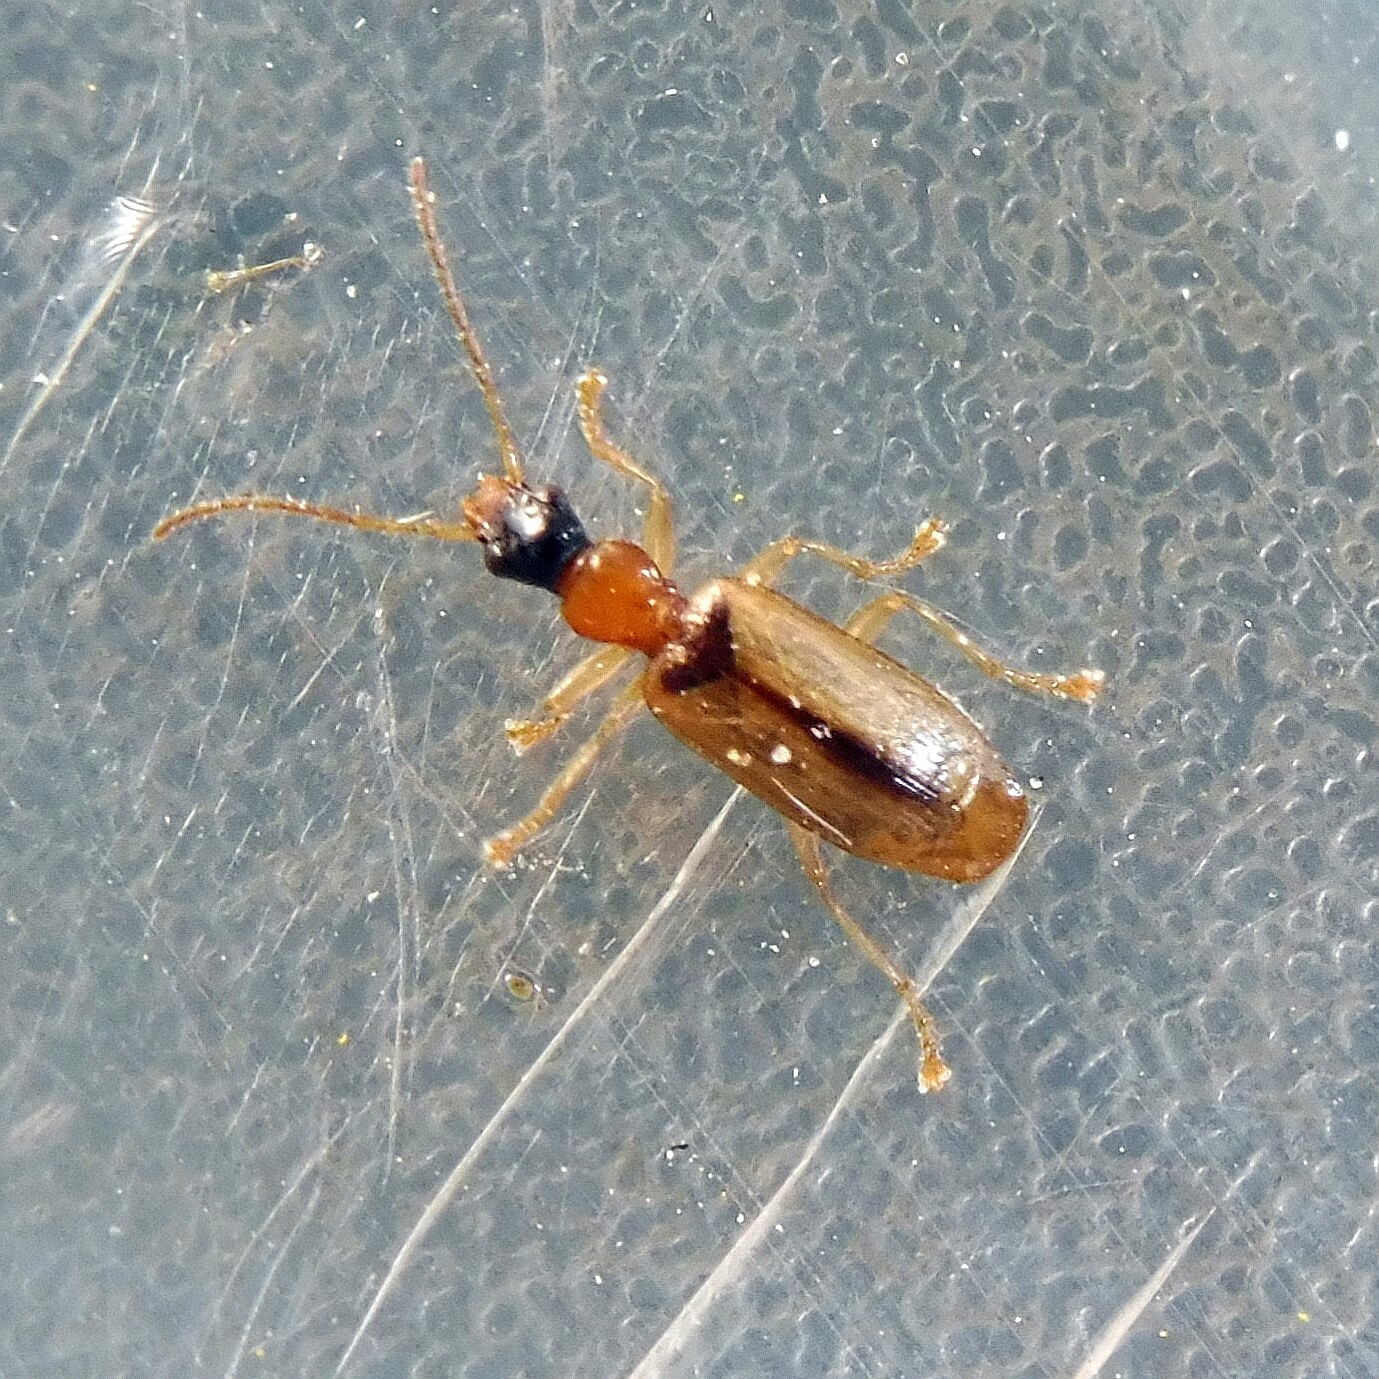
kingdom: Animalia
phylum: Arthropoda
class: Insecta
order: Coleoptera
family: Carabidae
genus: Demetrias
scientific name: Demetrias atricapillus
